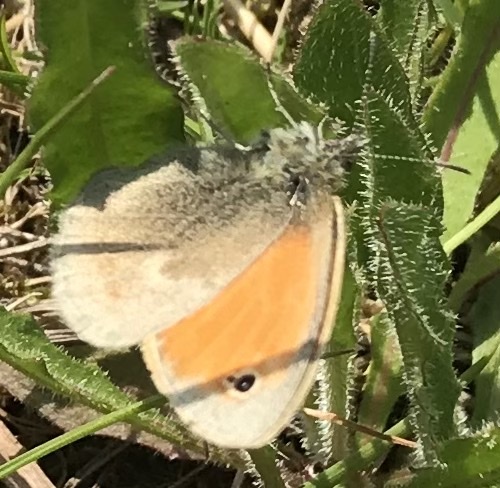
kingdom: Animalia
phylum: Arthropoda
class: Insecta
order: Lepidoptera
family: Nymphalidae
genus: Coenonympha
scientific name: Coenonympha pamphilus
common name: Small heath
